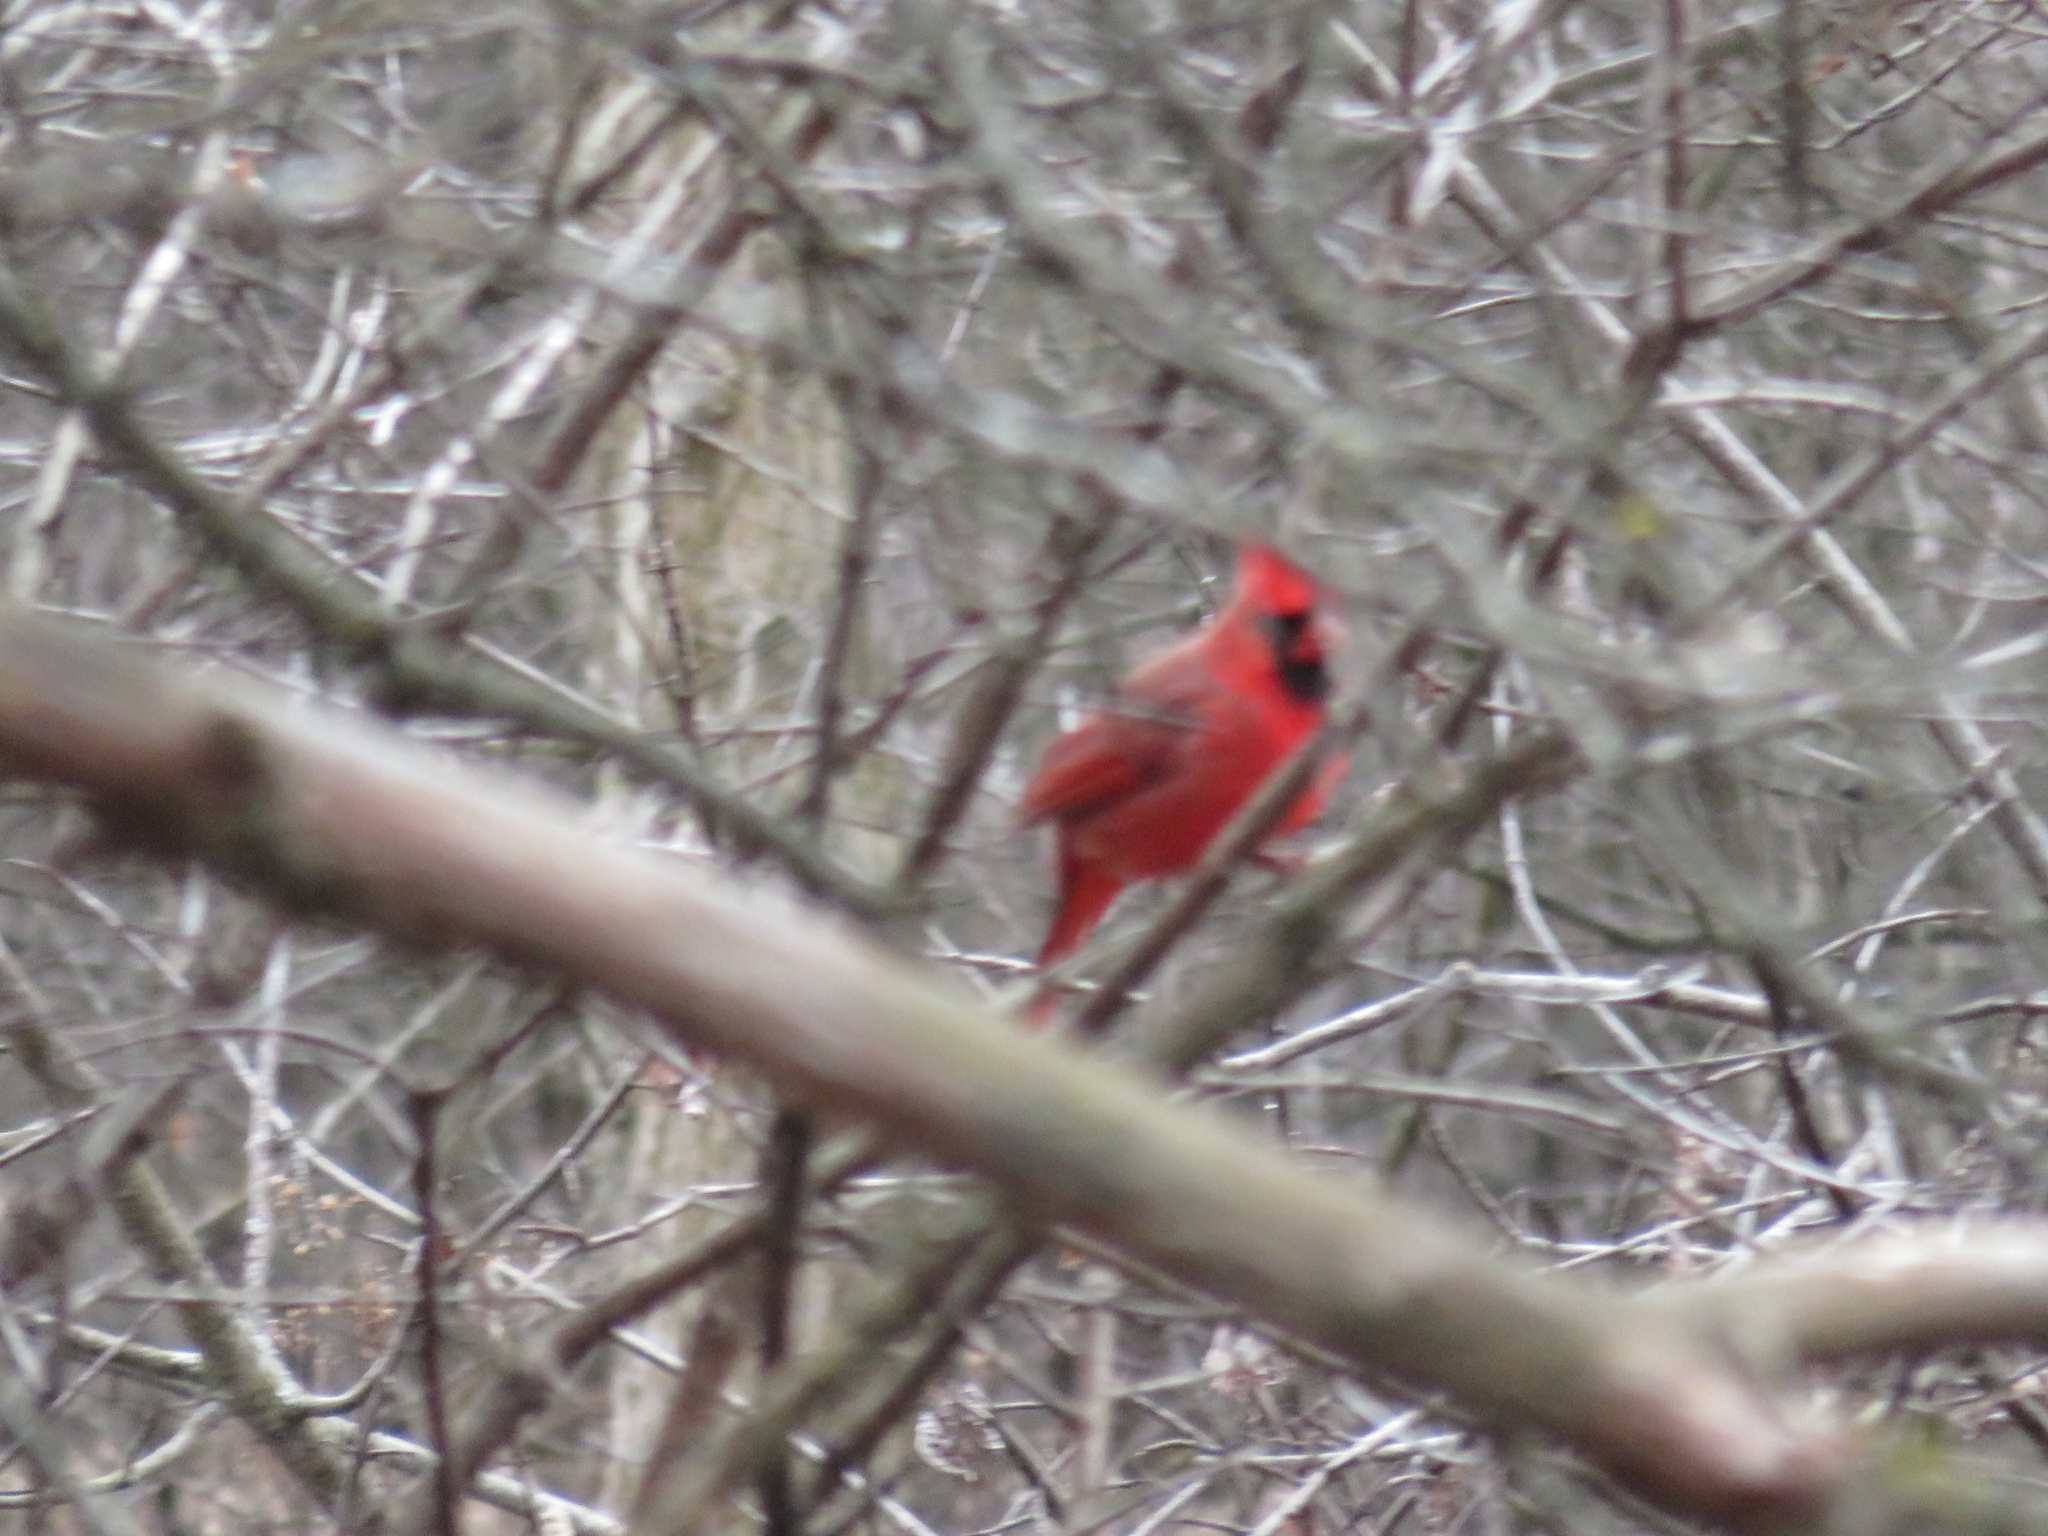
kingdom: Animalia
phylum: Chordata
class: Aves
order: Passeriformes
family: Cardinalidae
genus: Cardinalis
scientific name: Cardinalis cardinalis
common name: Northern cardinal
